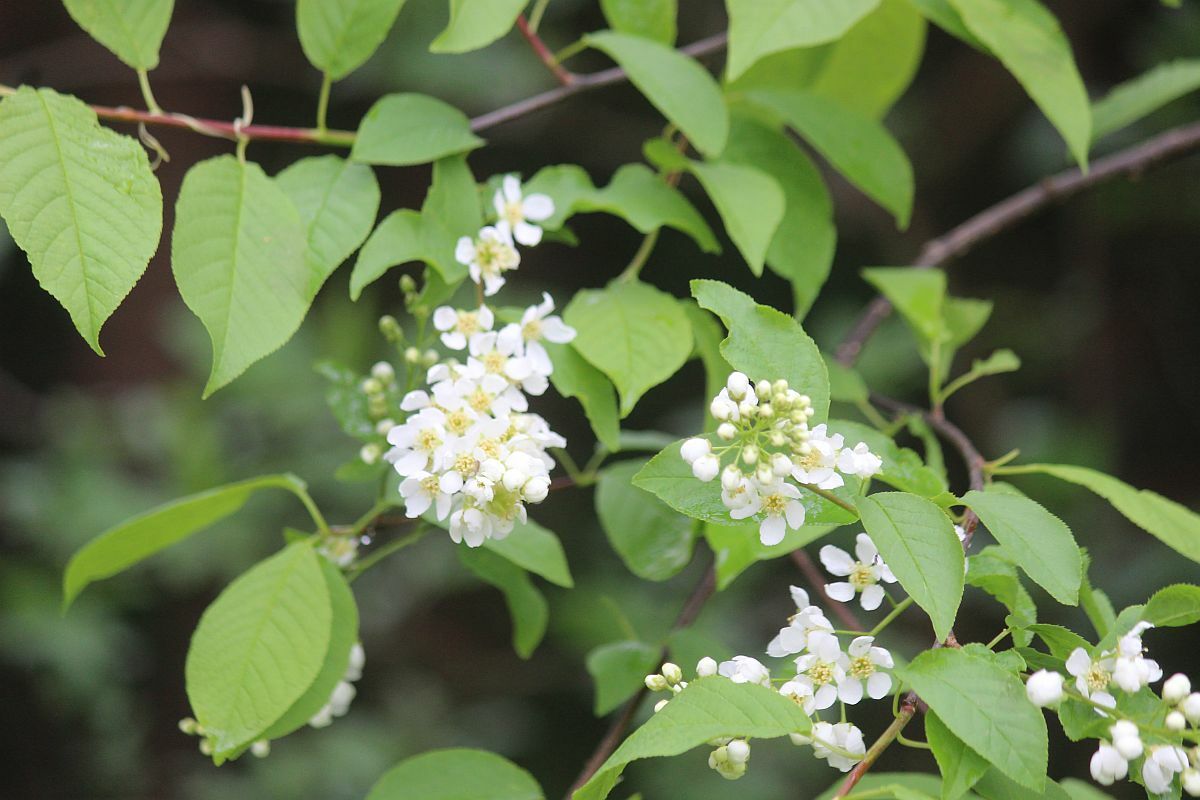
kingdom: Plantae
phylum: Tracheophyta
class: Magnoliopsida
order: Rosales
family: Rosaceae
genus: Prunus
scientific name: Prunus padus
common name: Bird cherry
